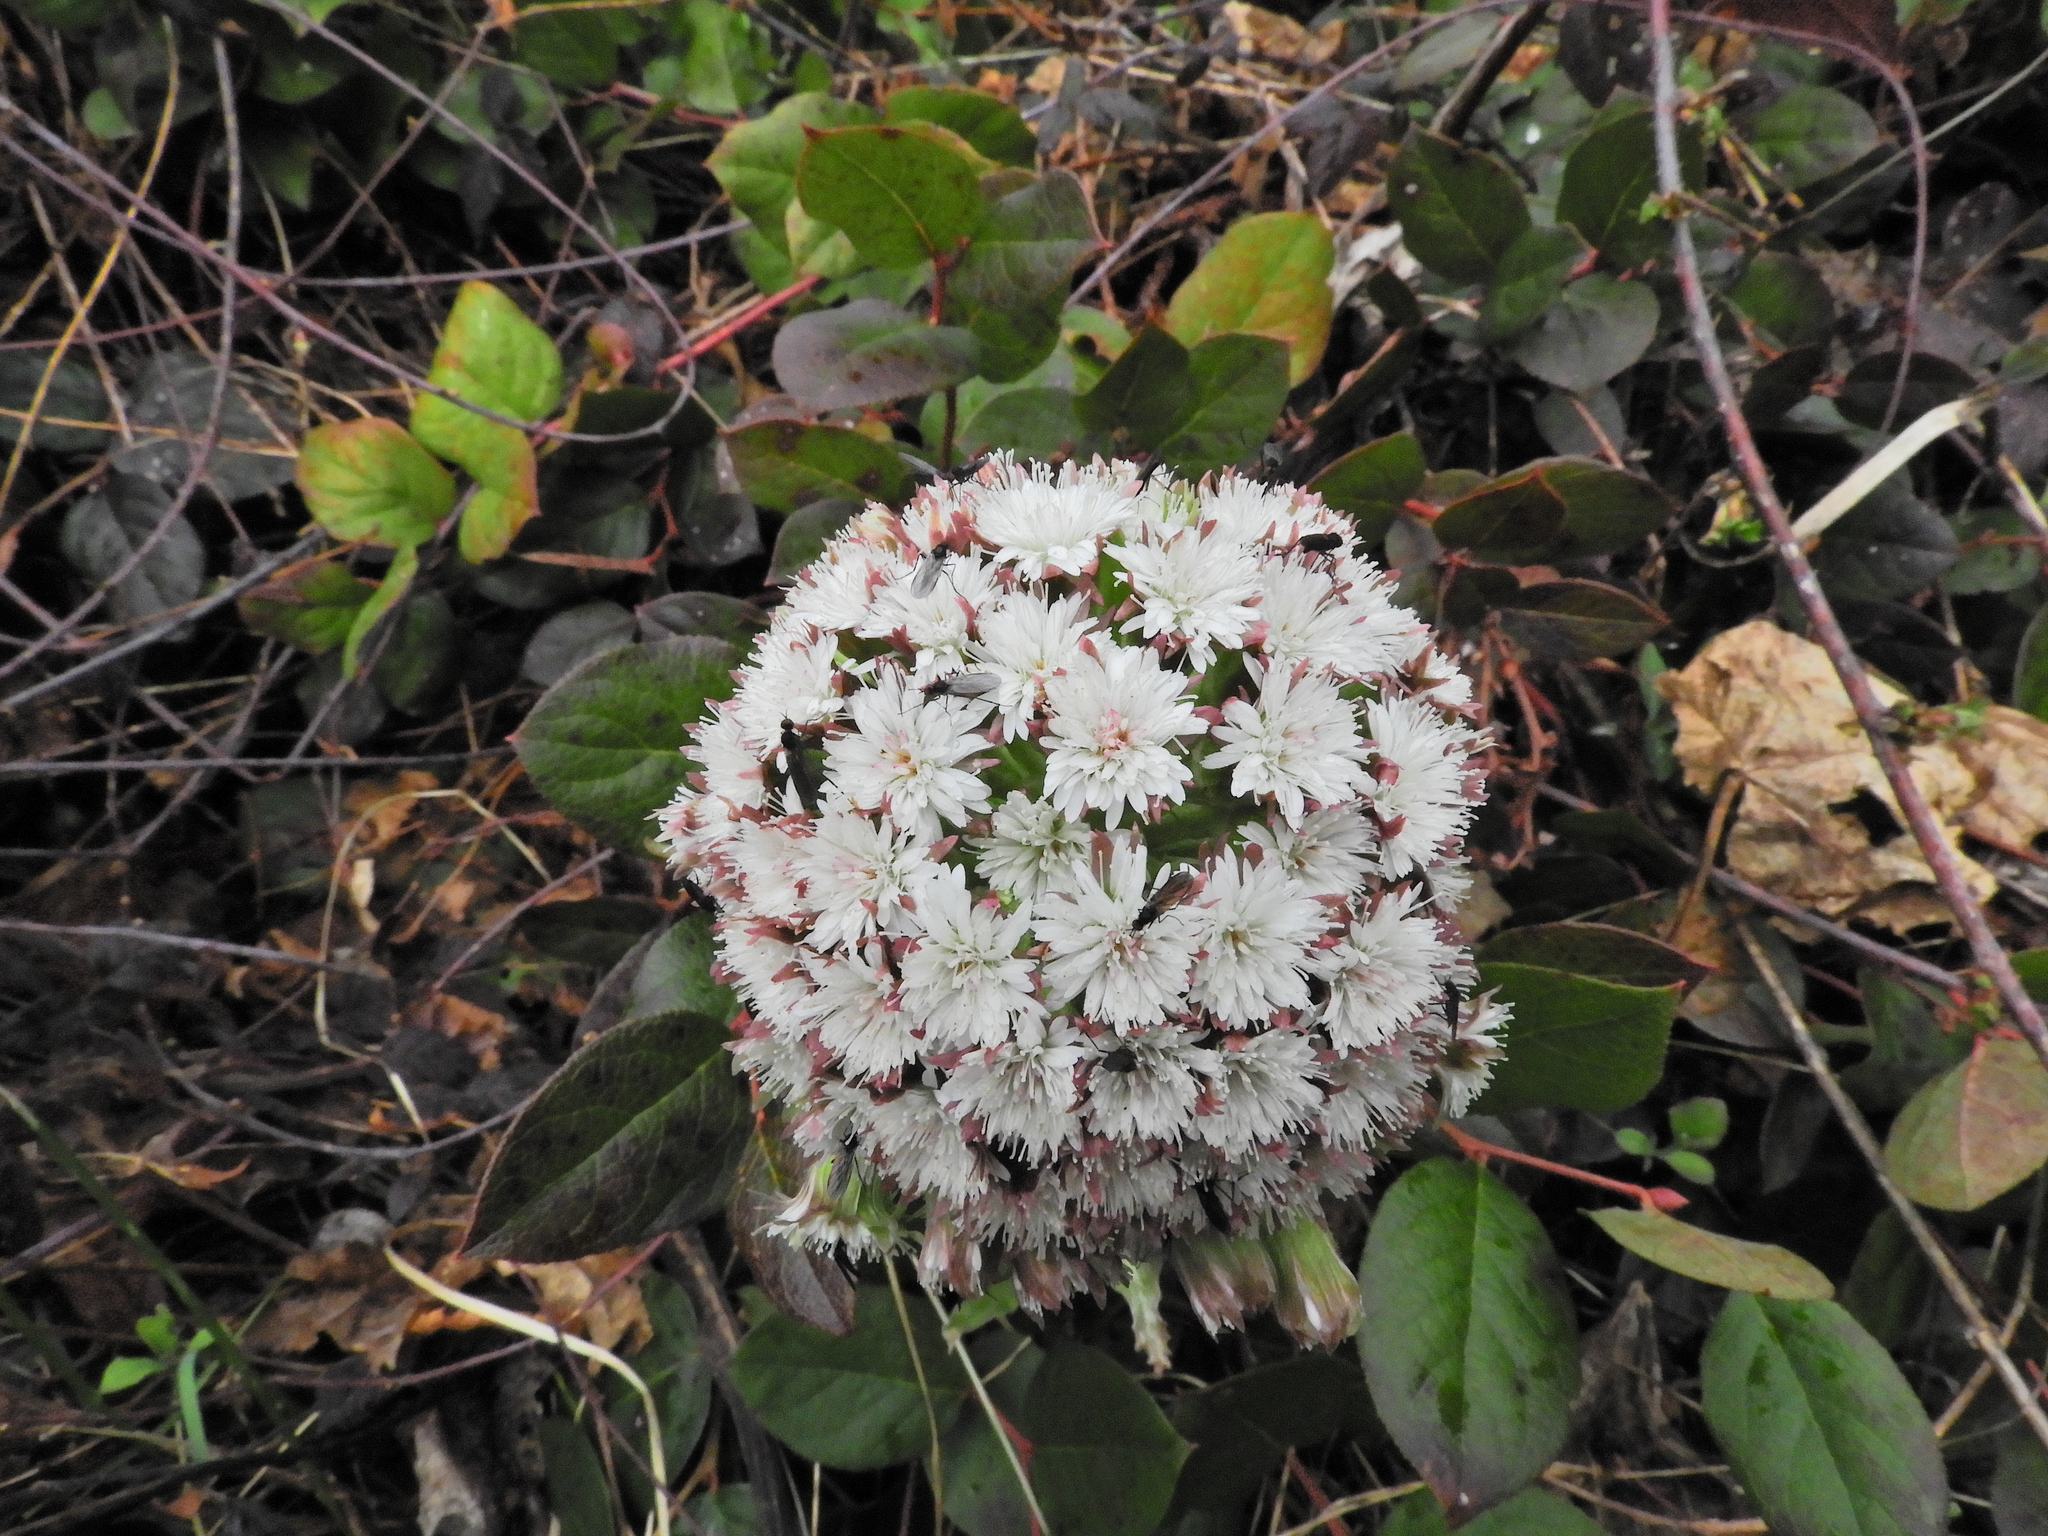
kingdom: Plantae
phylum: Tracheophyta
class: Magnoliopsida
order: Asterales
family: Asteraceae
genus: Petasites
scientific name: Petasites frigidus
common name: Arctic butterbur
